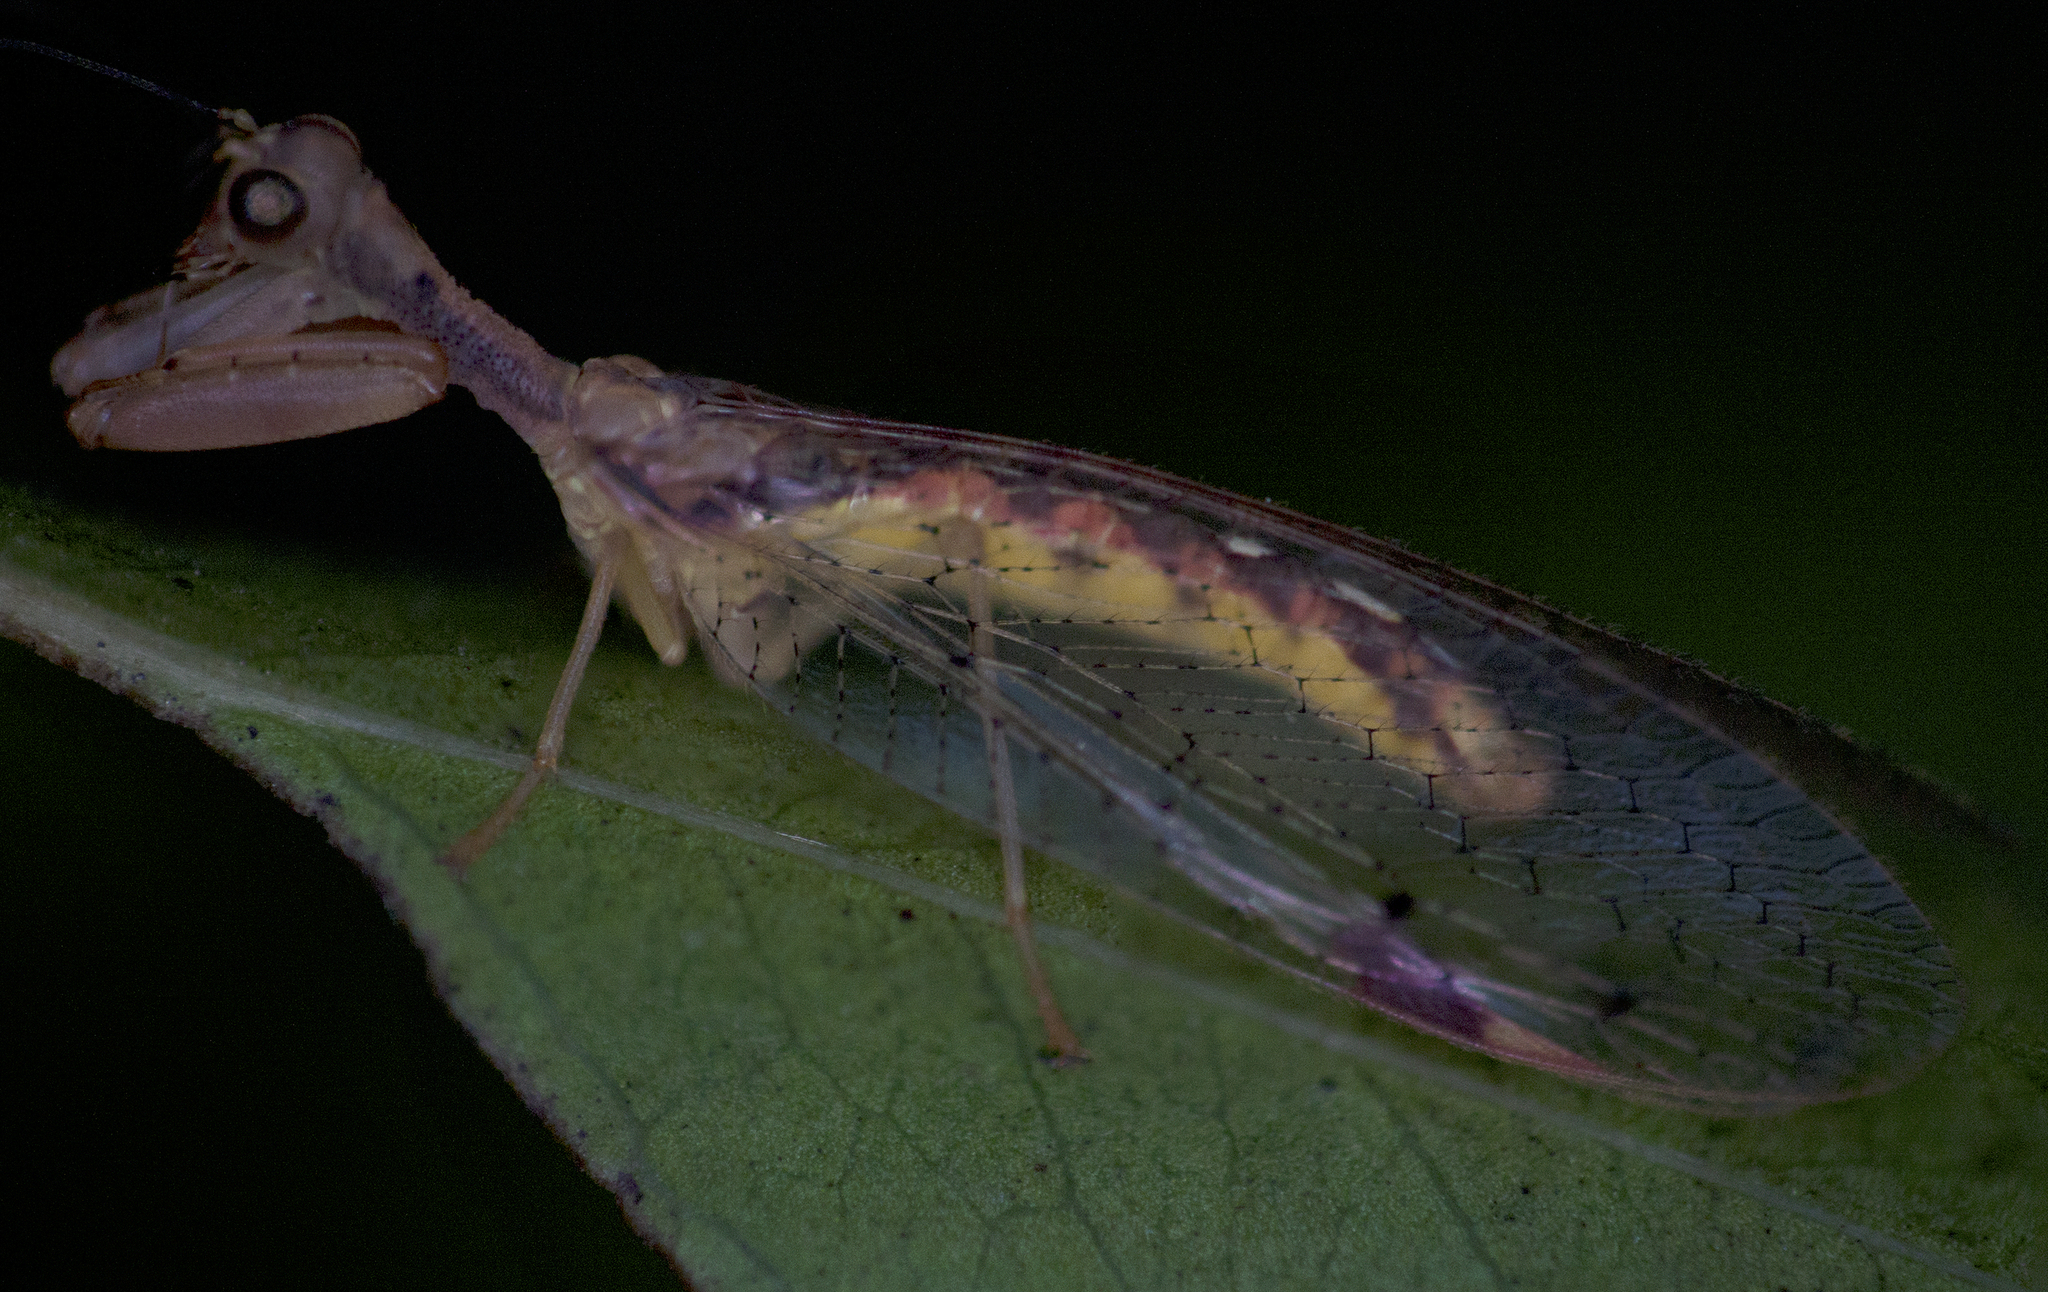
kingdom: Animalia
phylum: Arthropoda
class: Insecta
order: Neuroptera
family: Mantispidae
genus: Ditaxis
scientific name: Ditaxis biseriata
